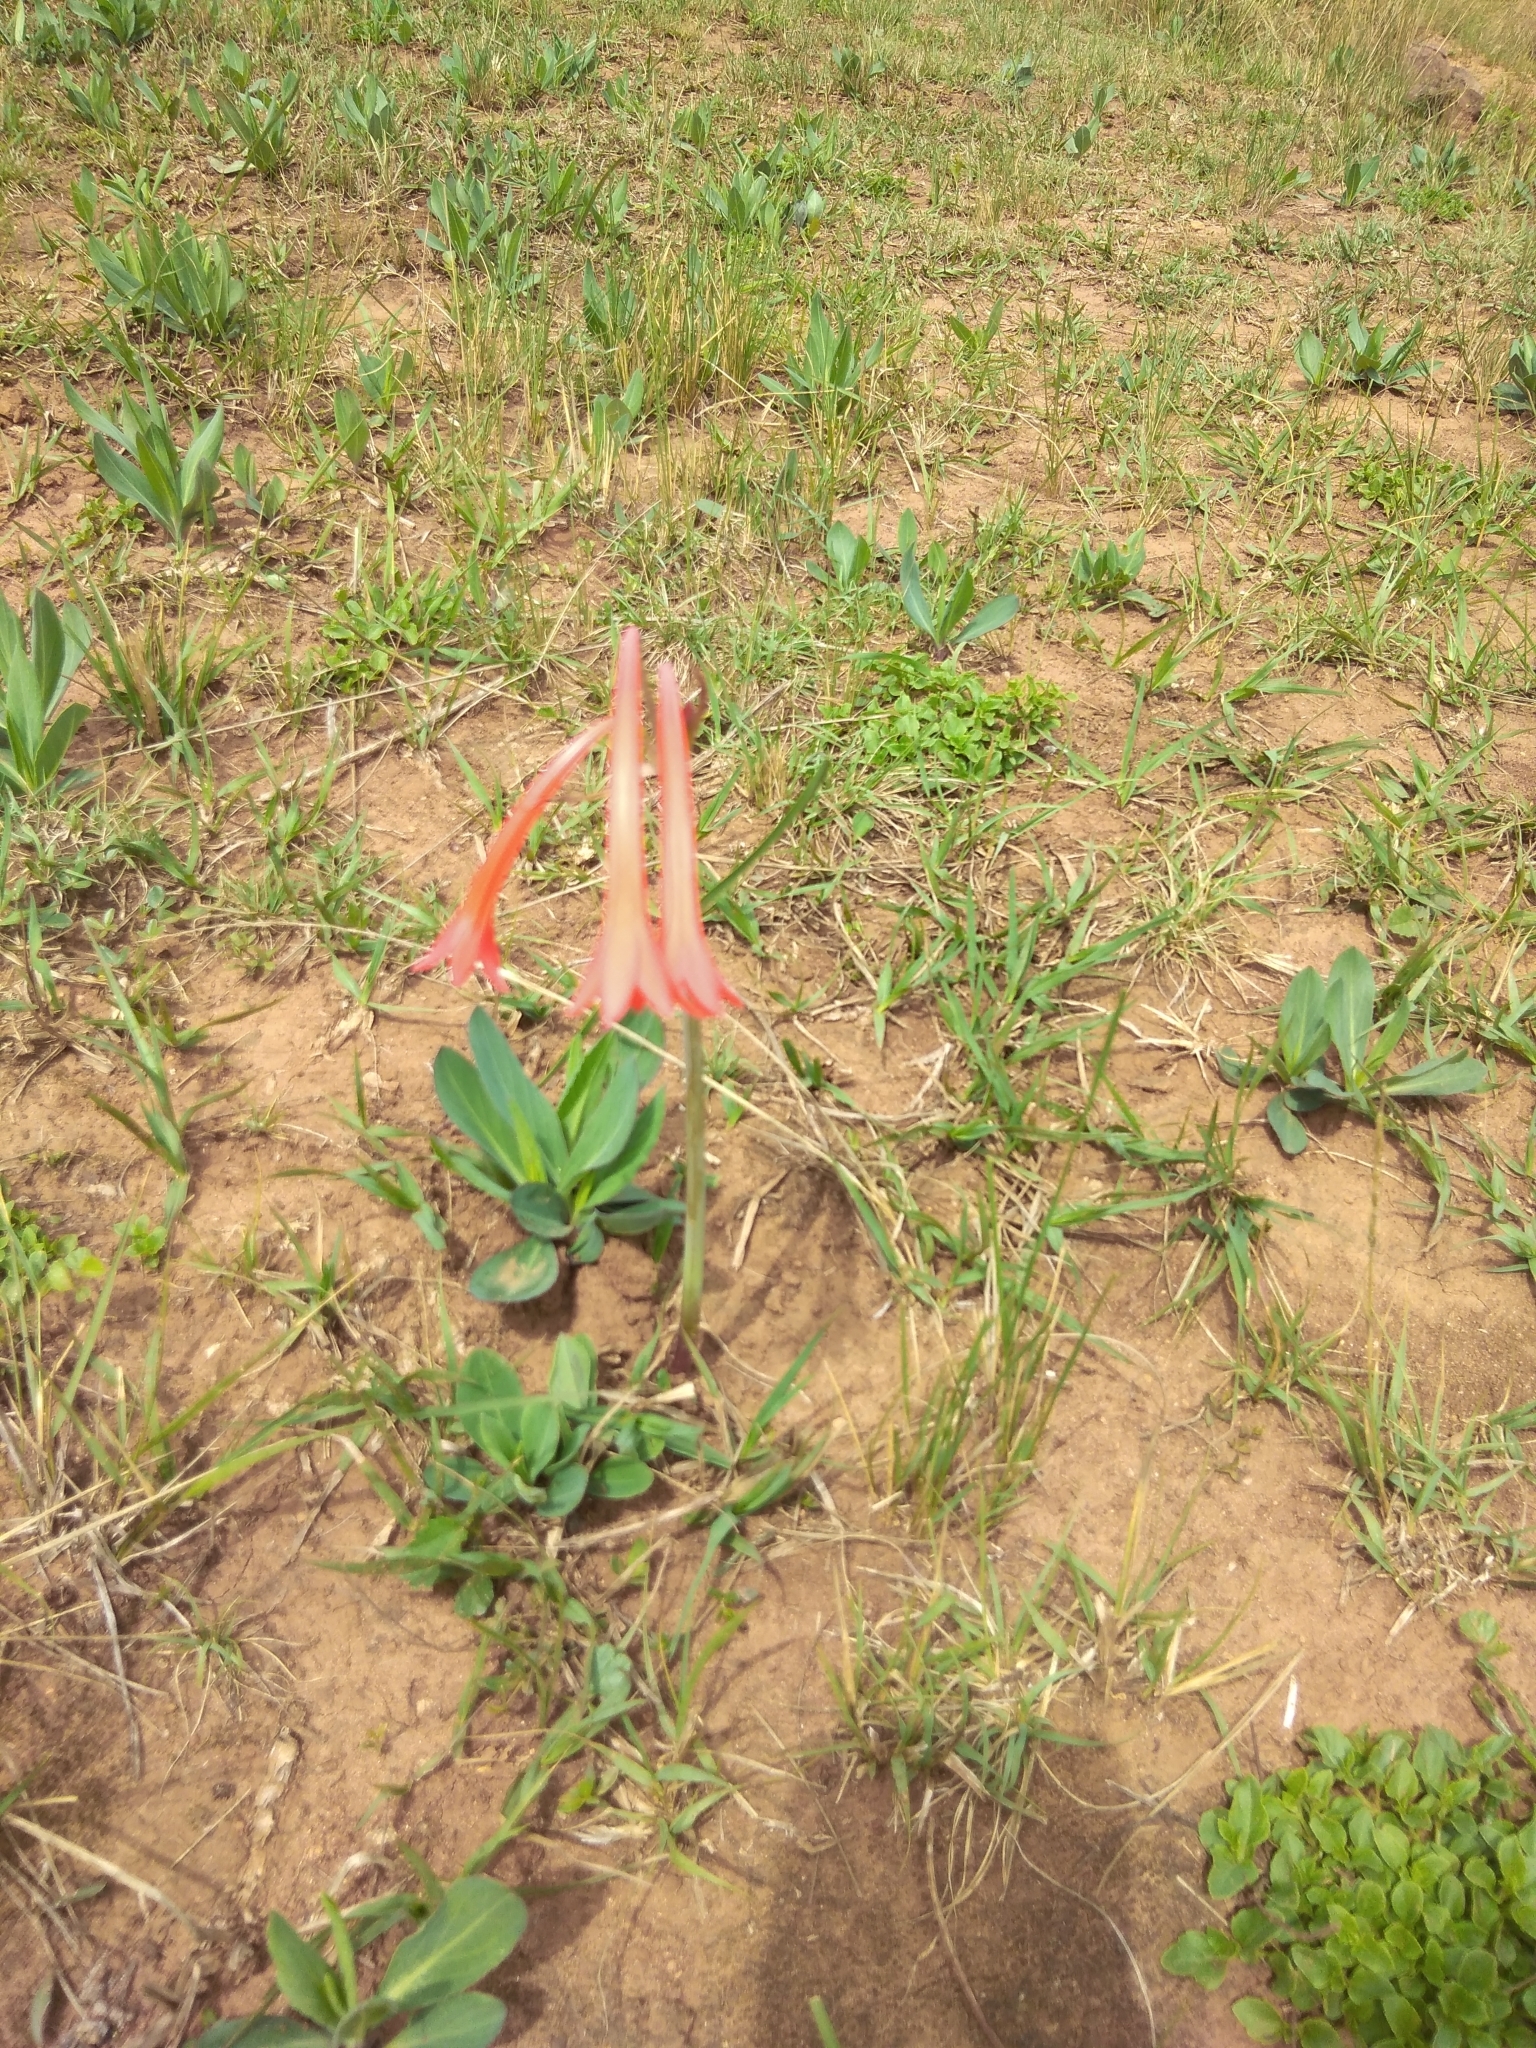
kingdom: Plantae
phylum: Tracheophyta
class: Liliopsida
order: Asparagales
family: Amaryllidaceae
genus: Cyrtanthus
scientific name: Cyrtanthus contractus
